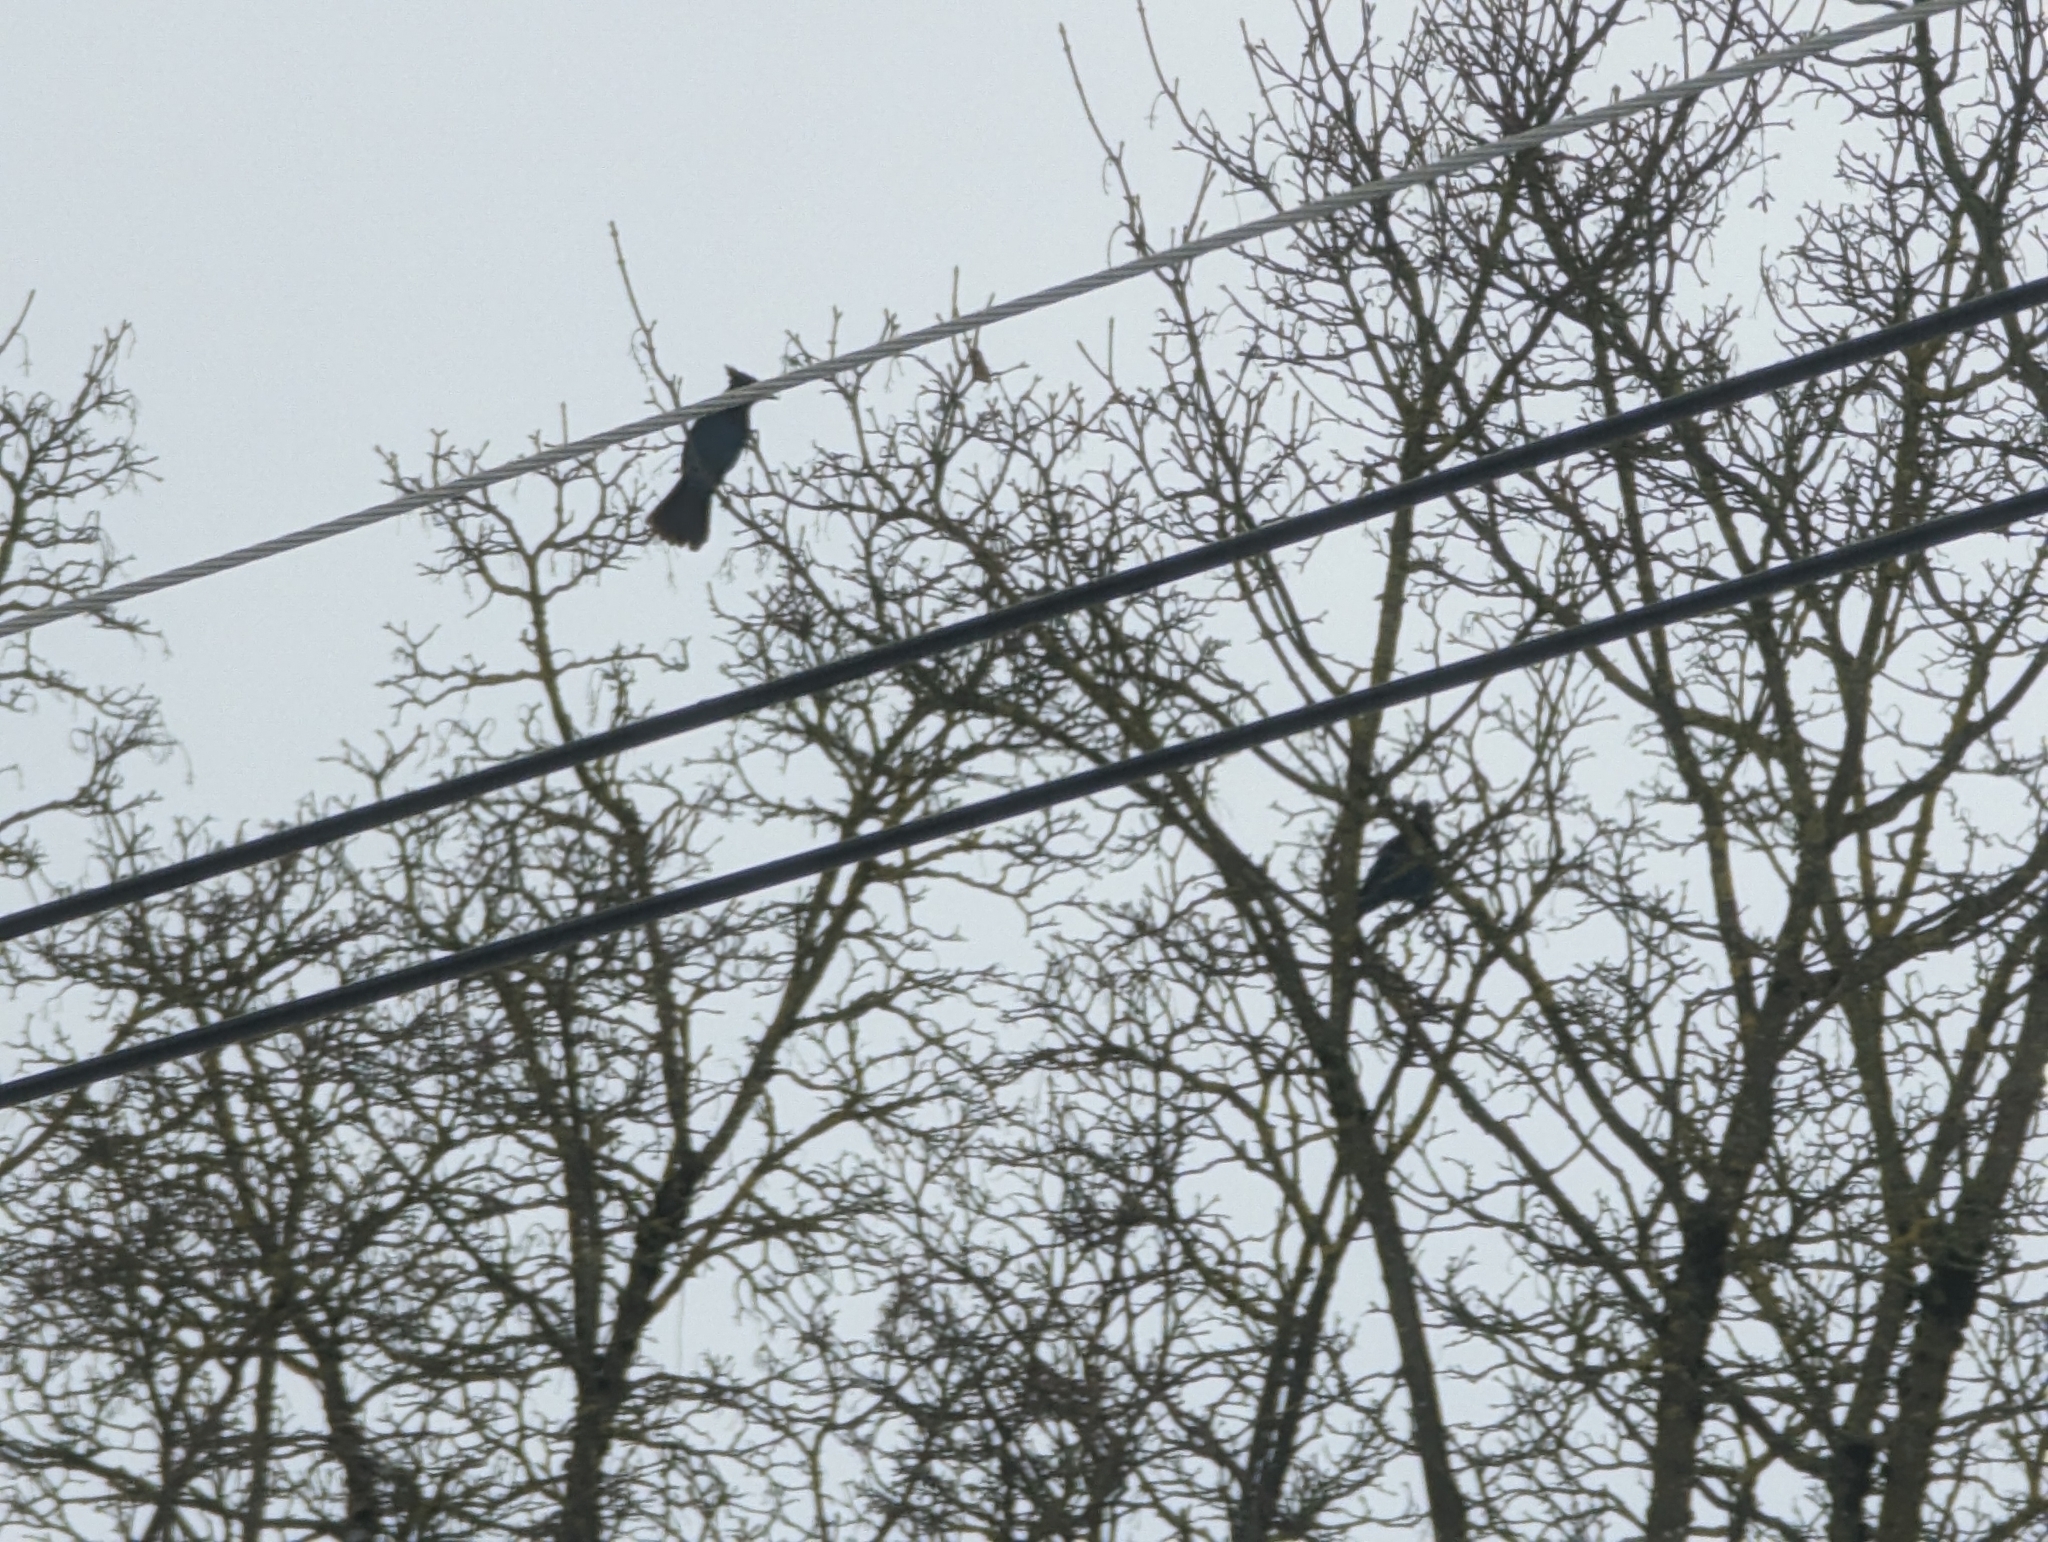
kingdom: Animalia
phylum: Chordata
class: Aves
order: Passeriformes
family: Corvidae
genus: Cyanocitta
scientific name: Cyanocitta stelleri
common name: Steller's jay
